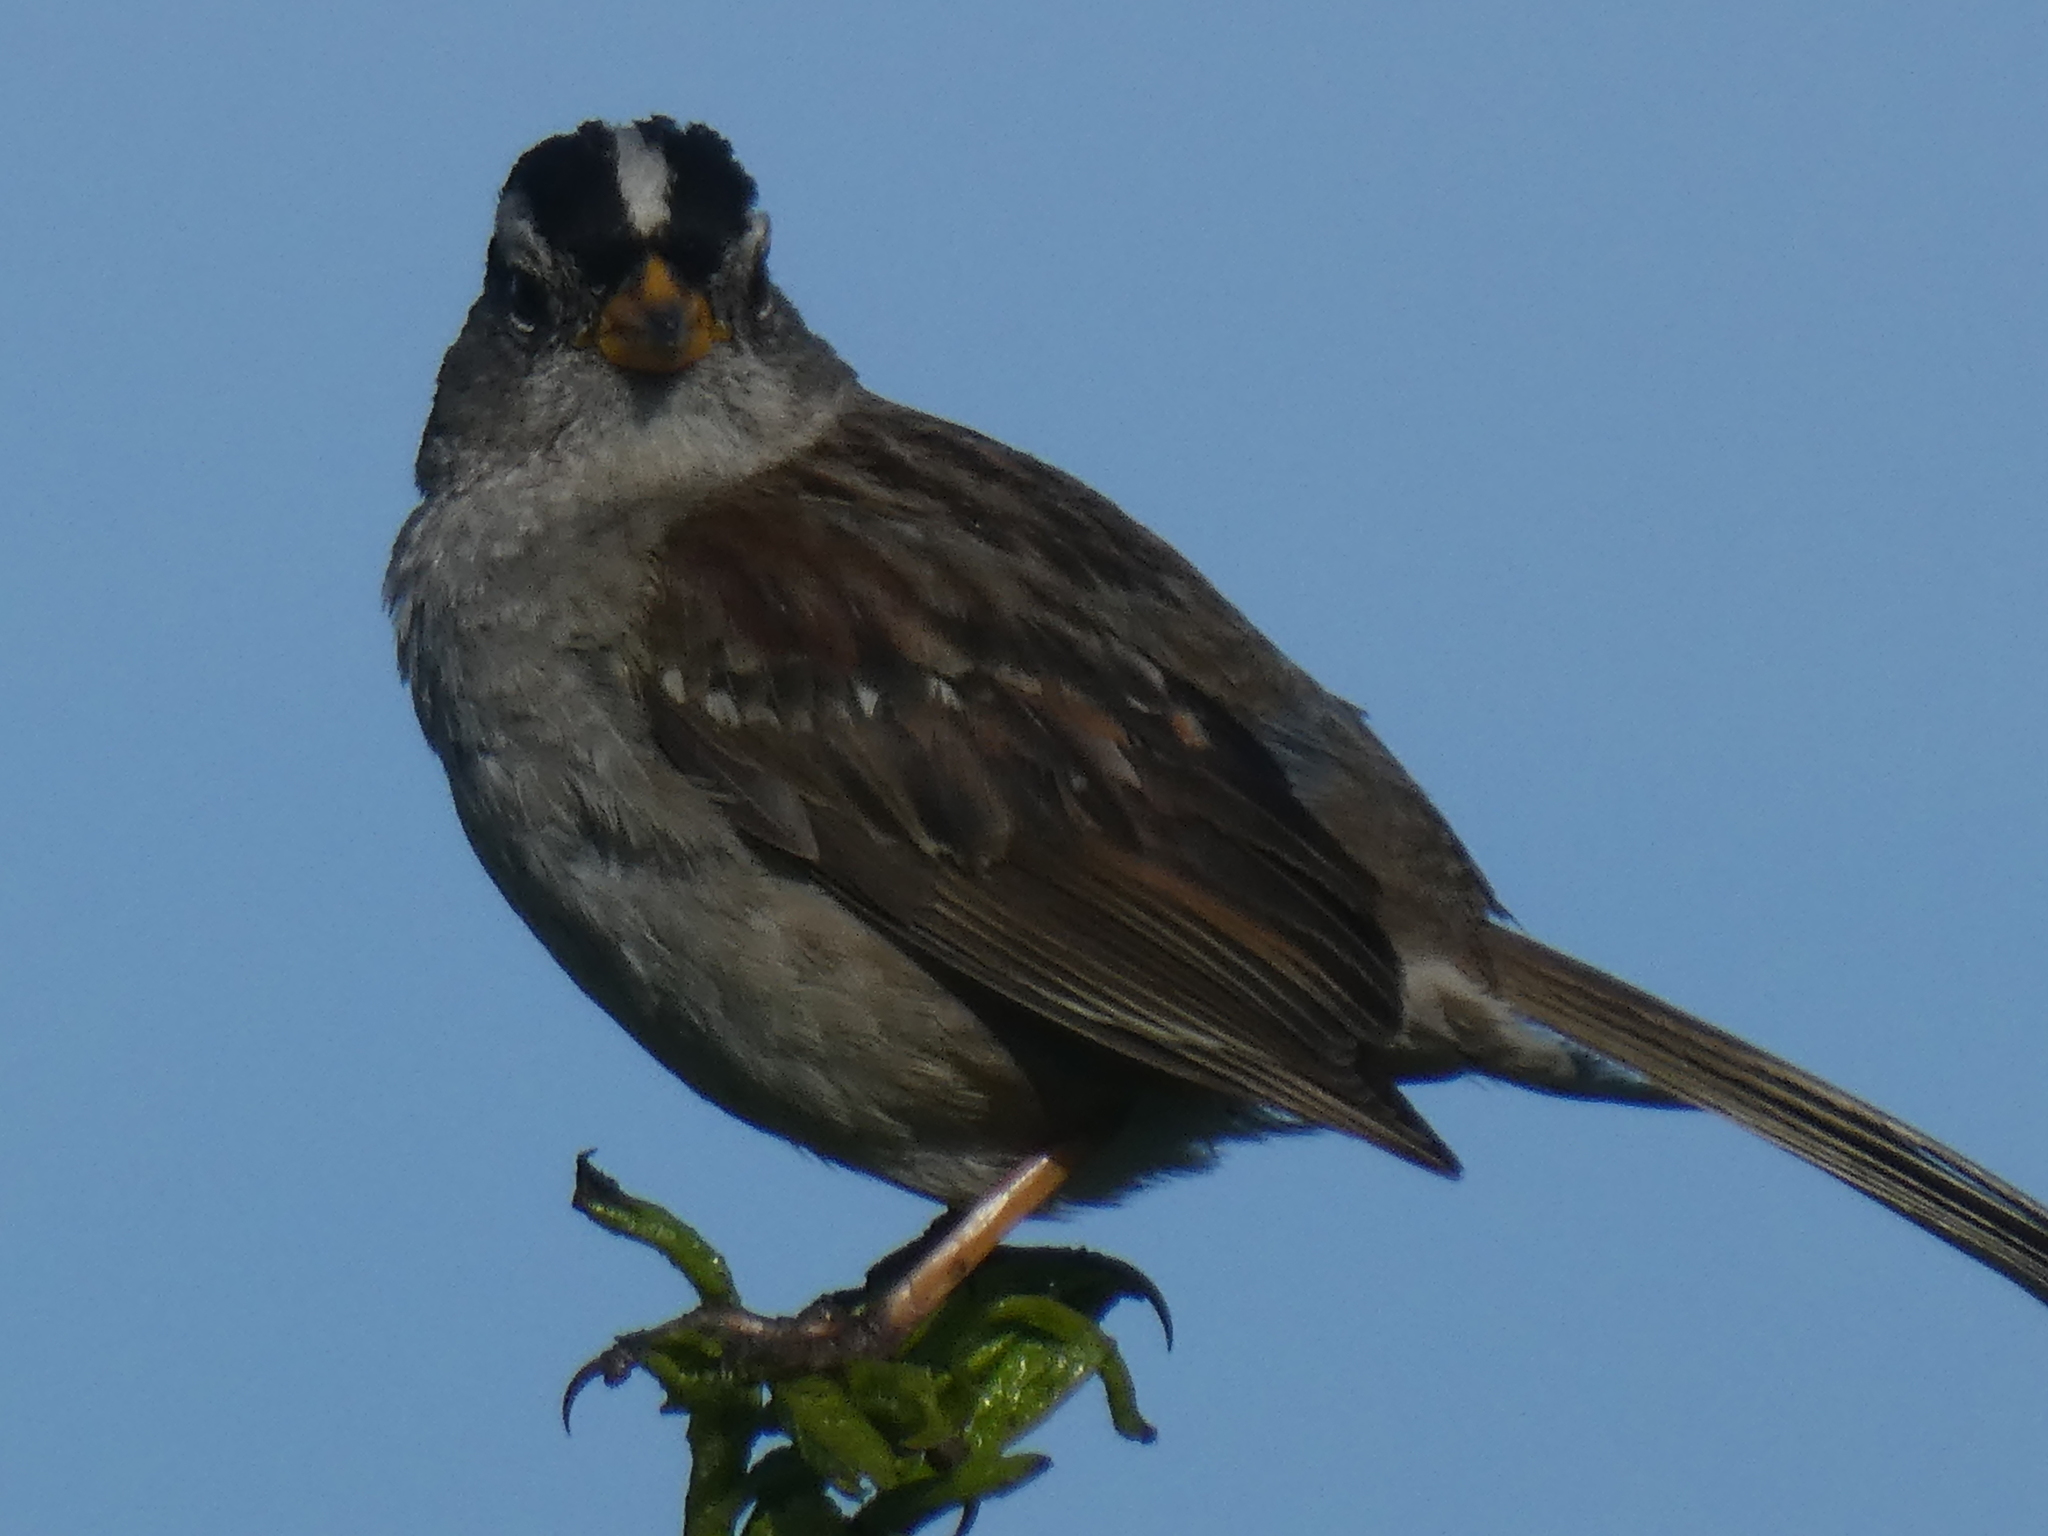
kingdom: Animalia
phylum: Chordata
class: Aves
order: Passeriformes
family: Passerellidae
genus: Zonotrichia
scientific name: Zonotrichia leucophrys
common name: White-crowned sparrow
